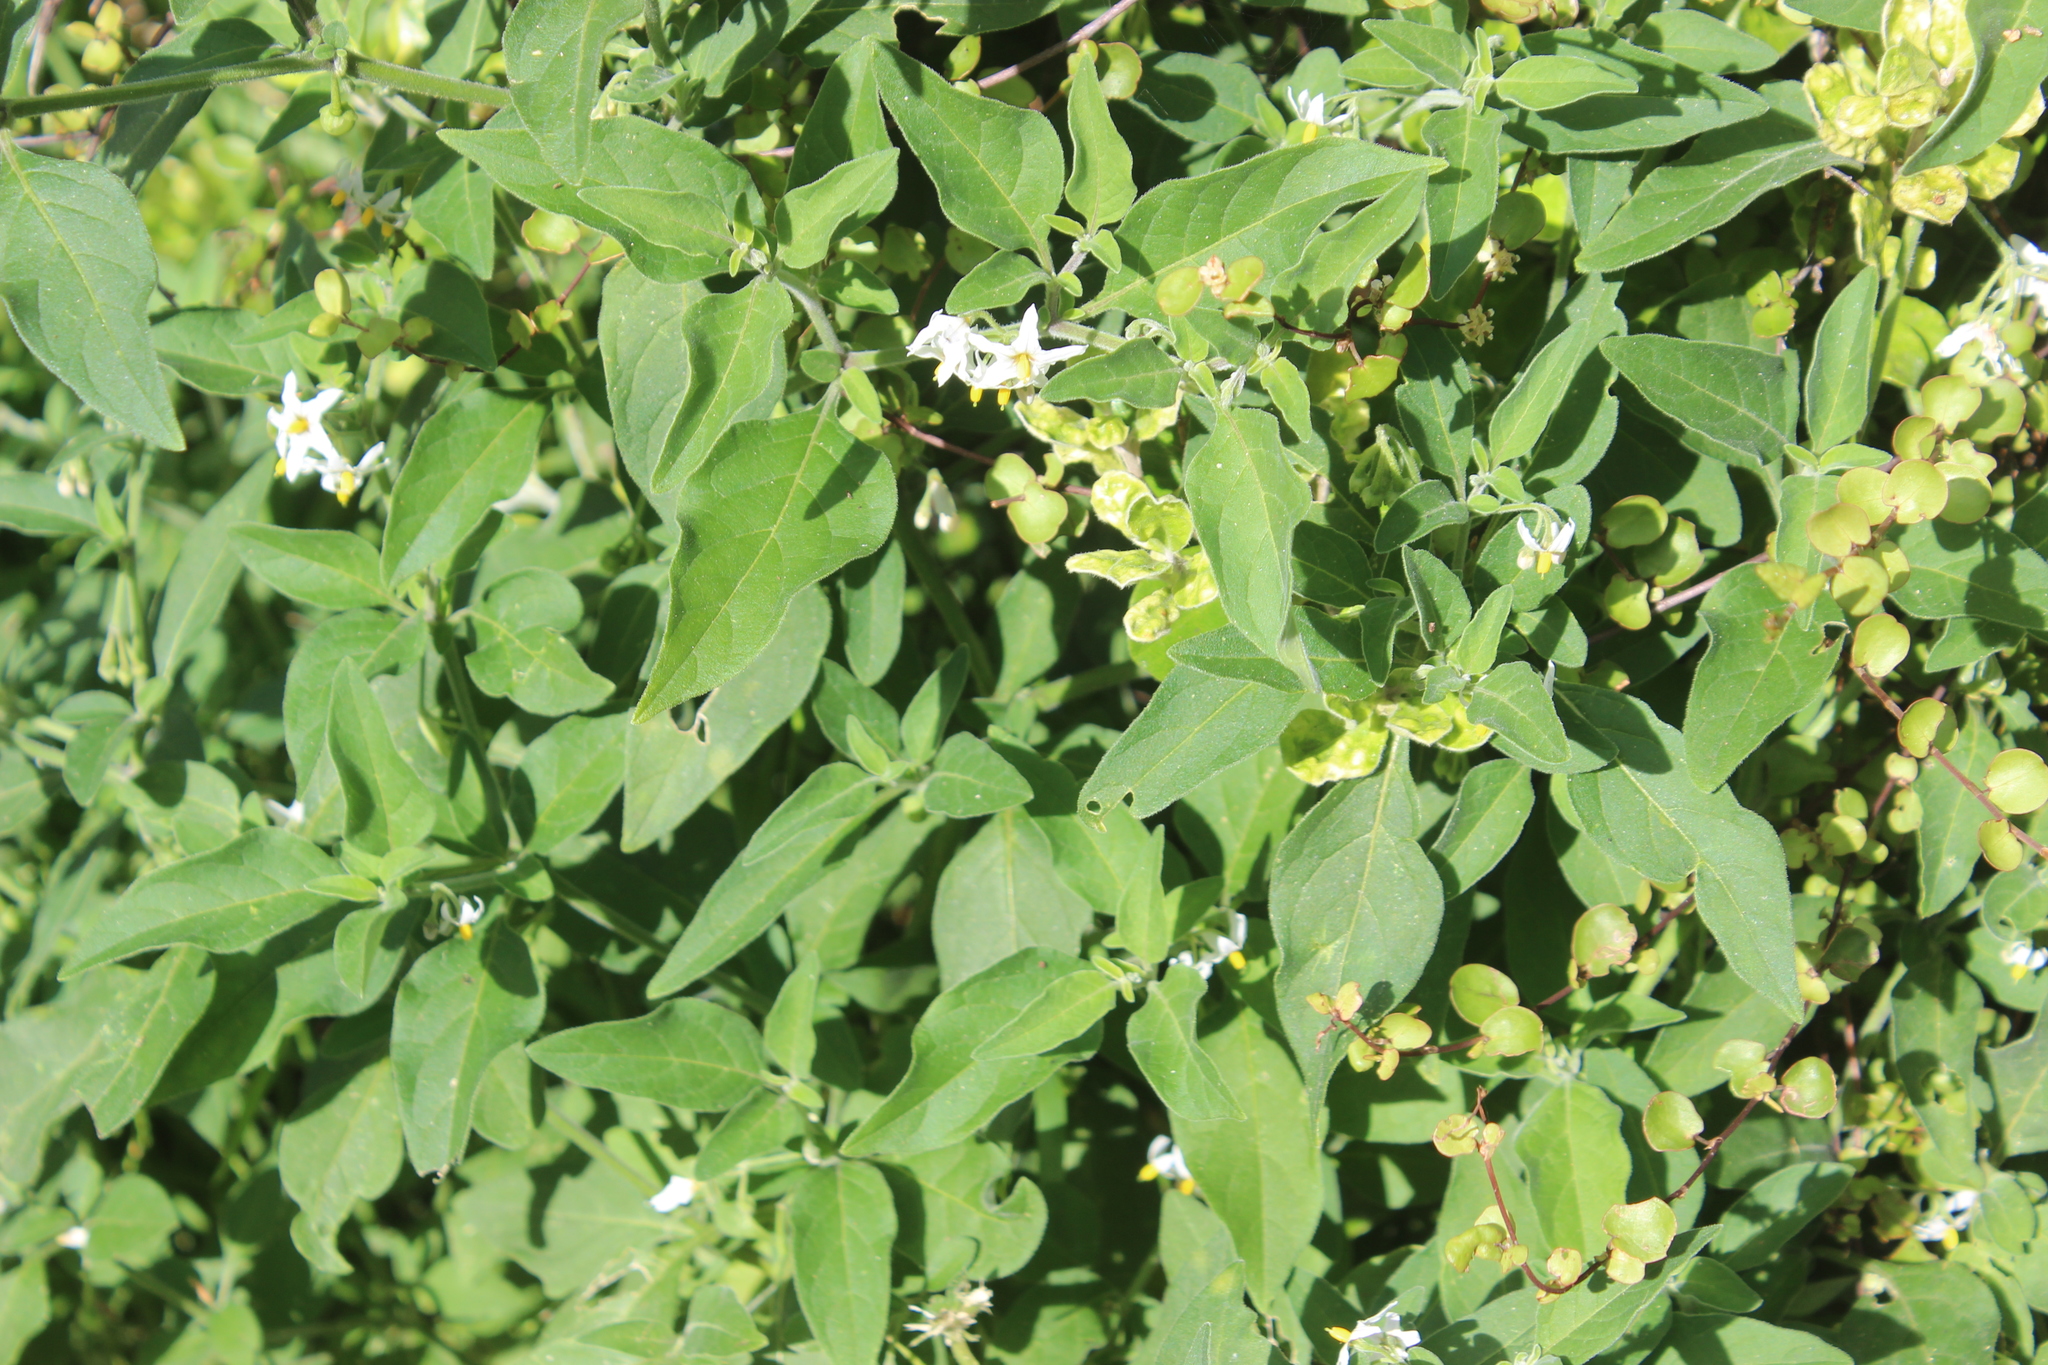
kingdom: Plantae
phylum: Tracheophyta
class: Magnoliopsida
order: Solanales
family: Solanaceae
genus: Solanum
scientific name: Solanum chenopodioides
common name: Tall nightshade
